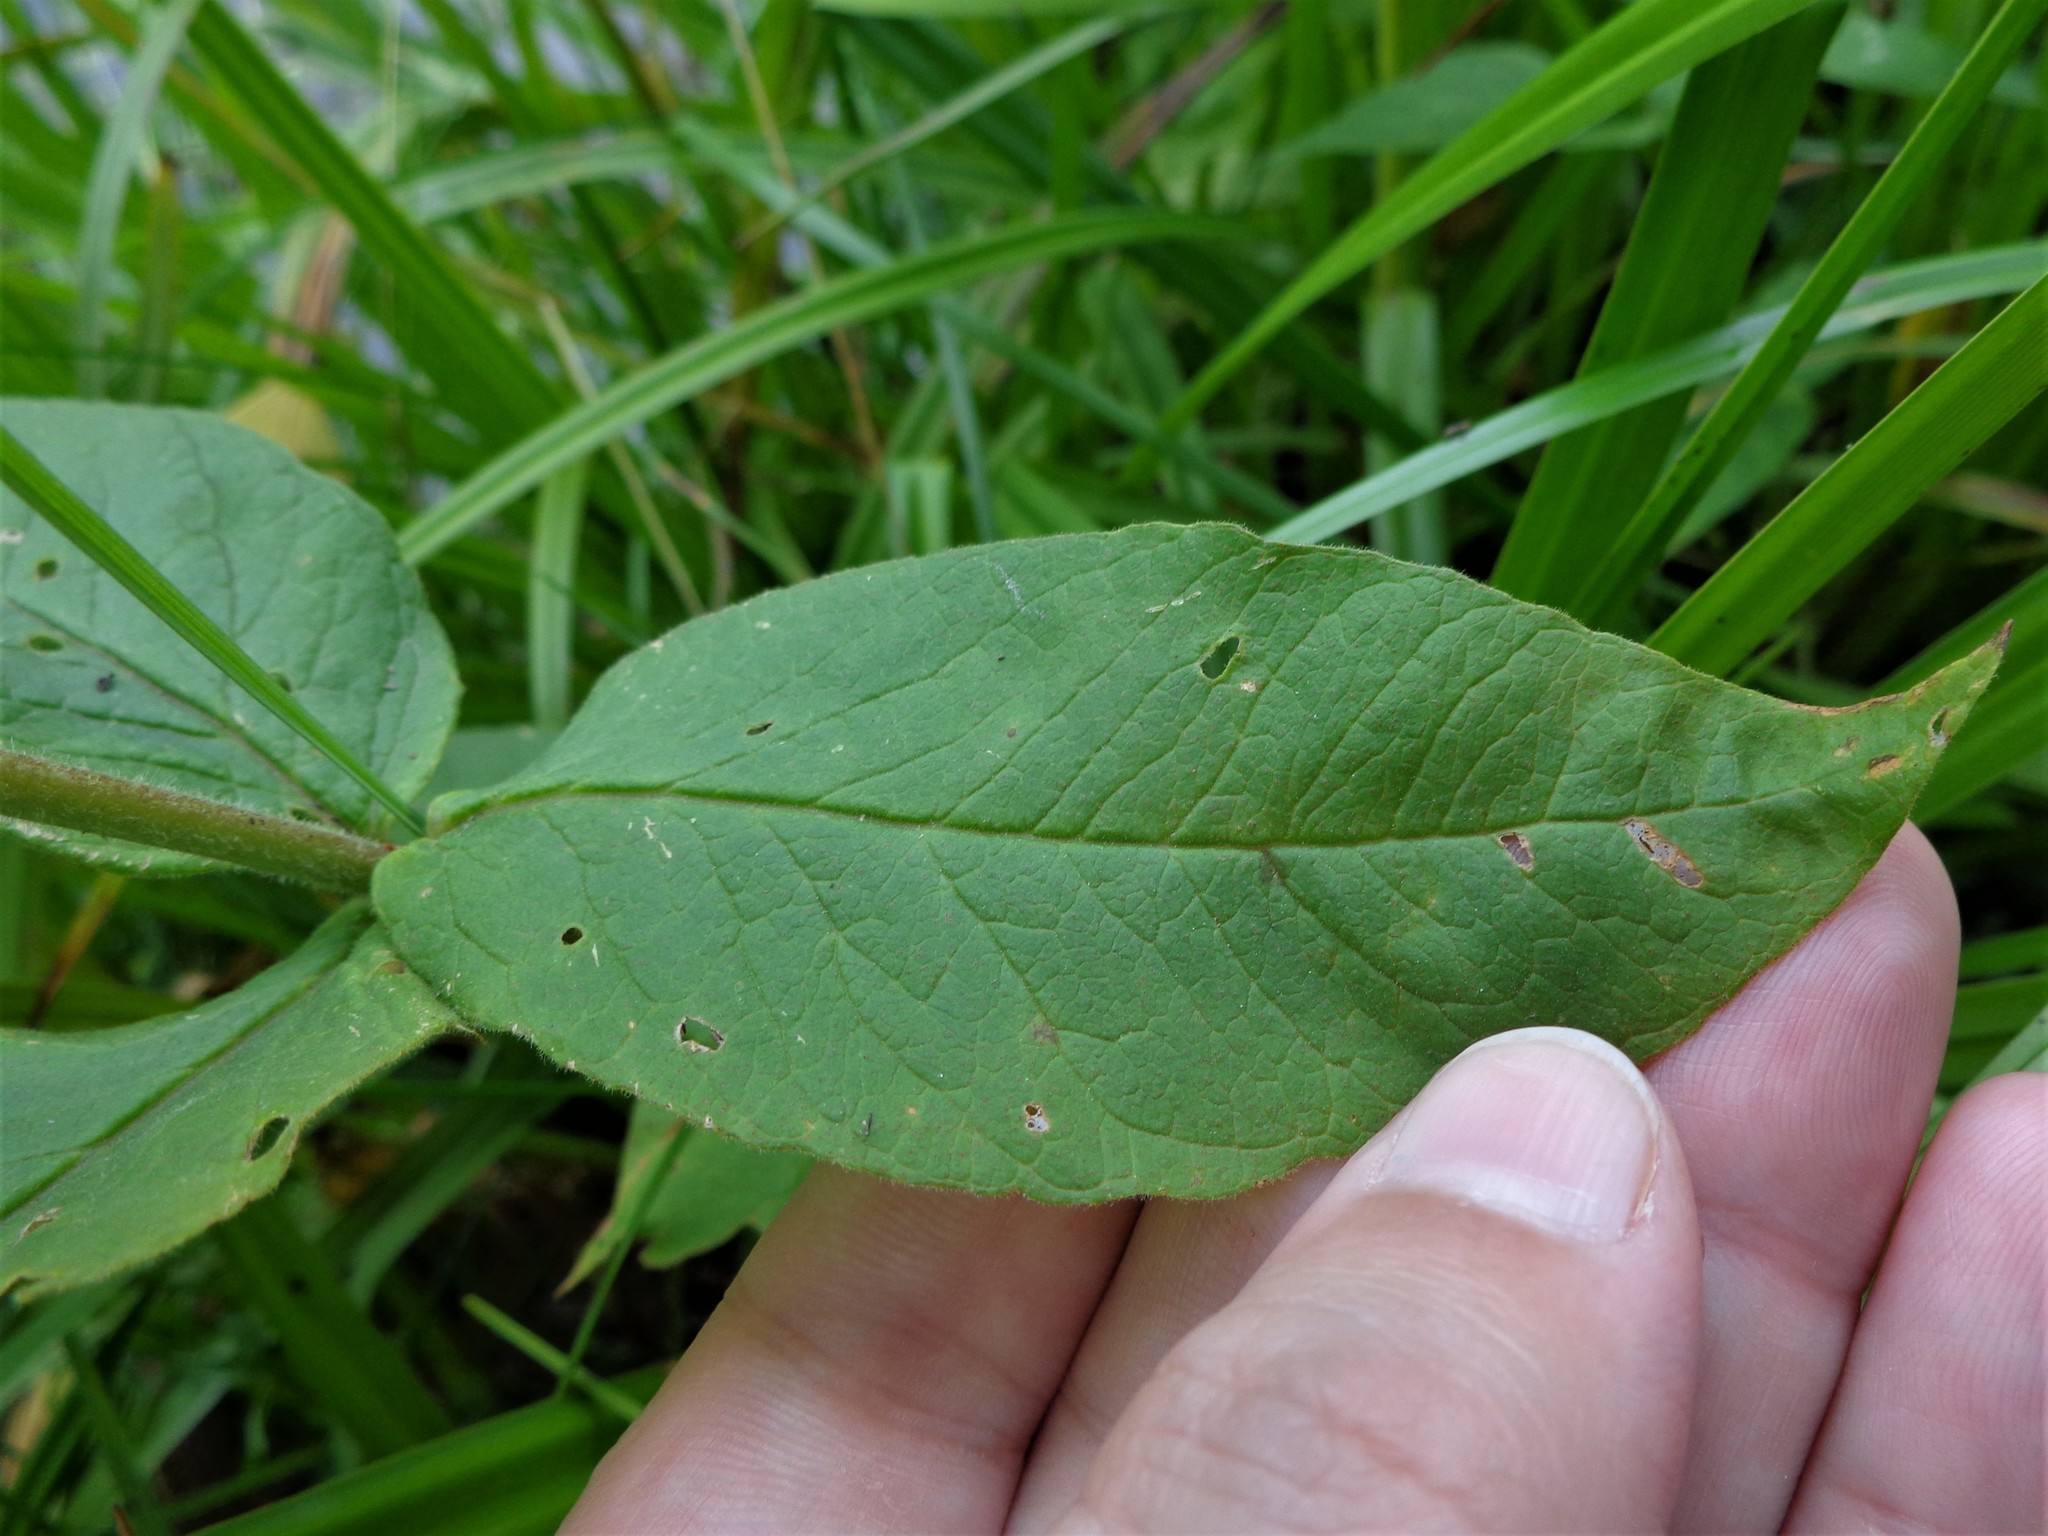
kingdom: Plantae
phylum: Tracheophyta
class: Magnoliopsida
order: Ericales
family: Primulaceae
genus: Lysimachia
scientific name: Lysimachia vulgaris
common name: Yellow loosestrife
